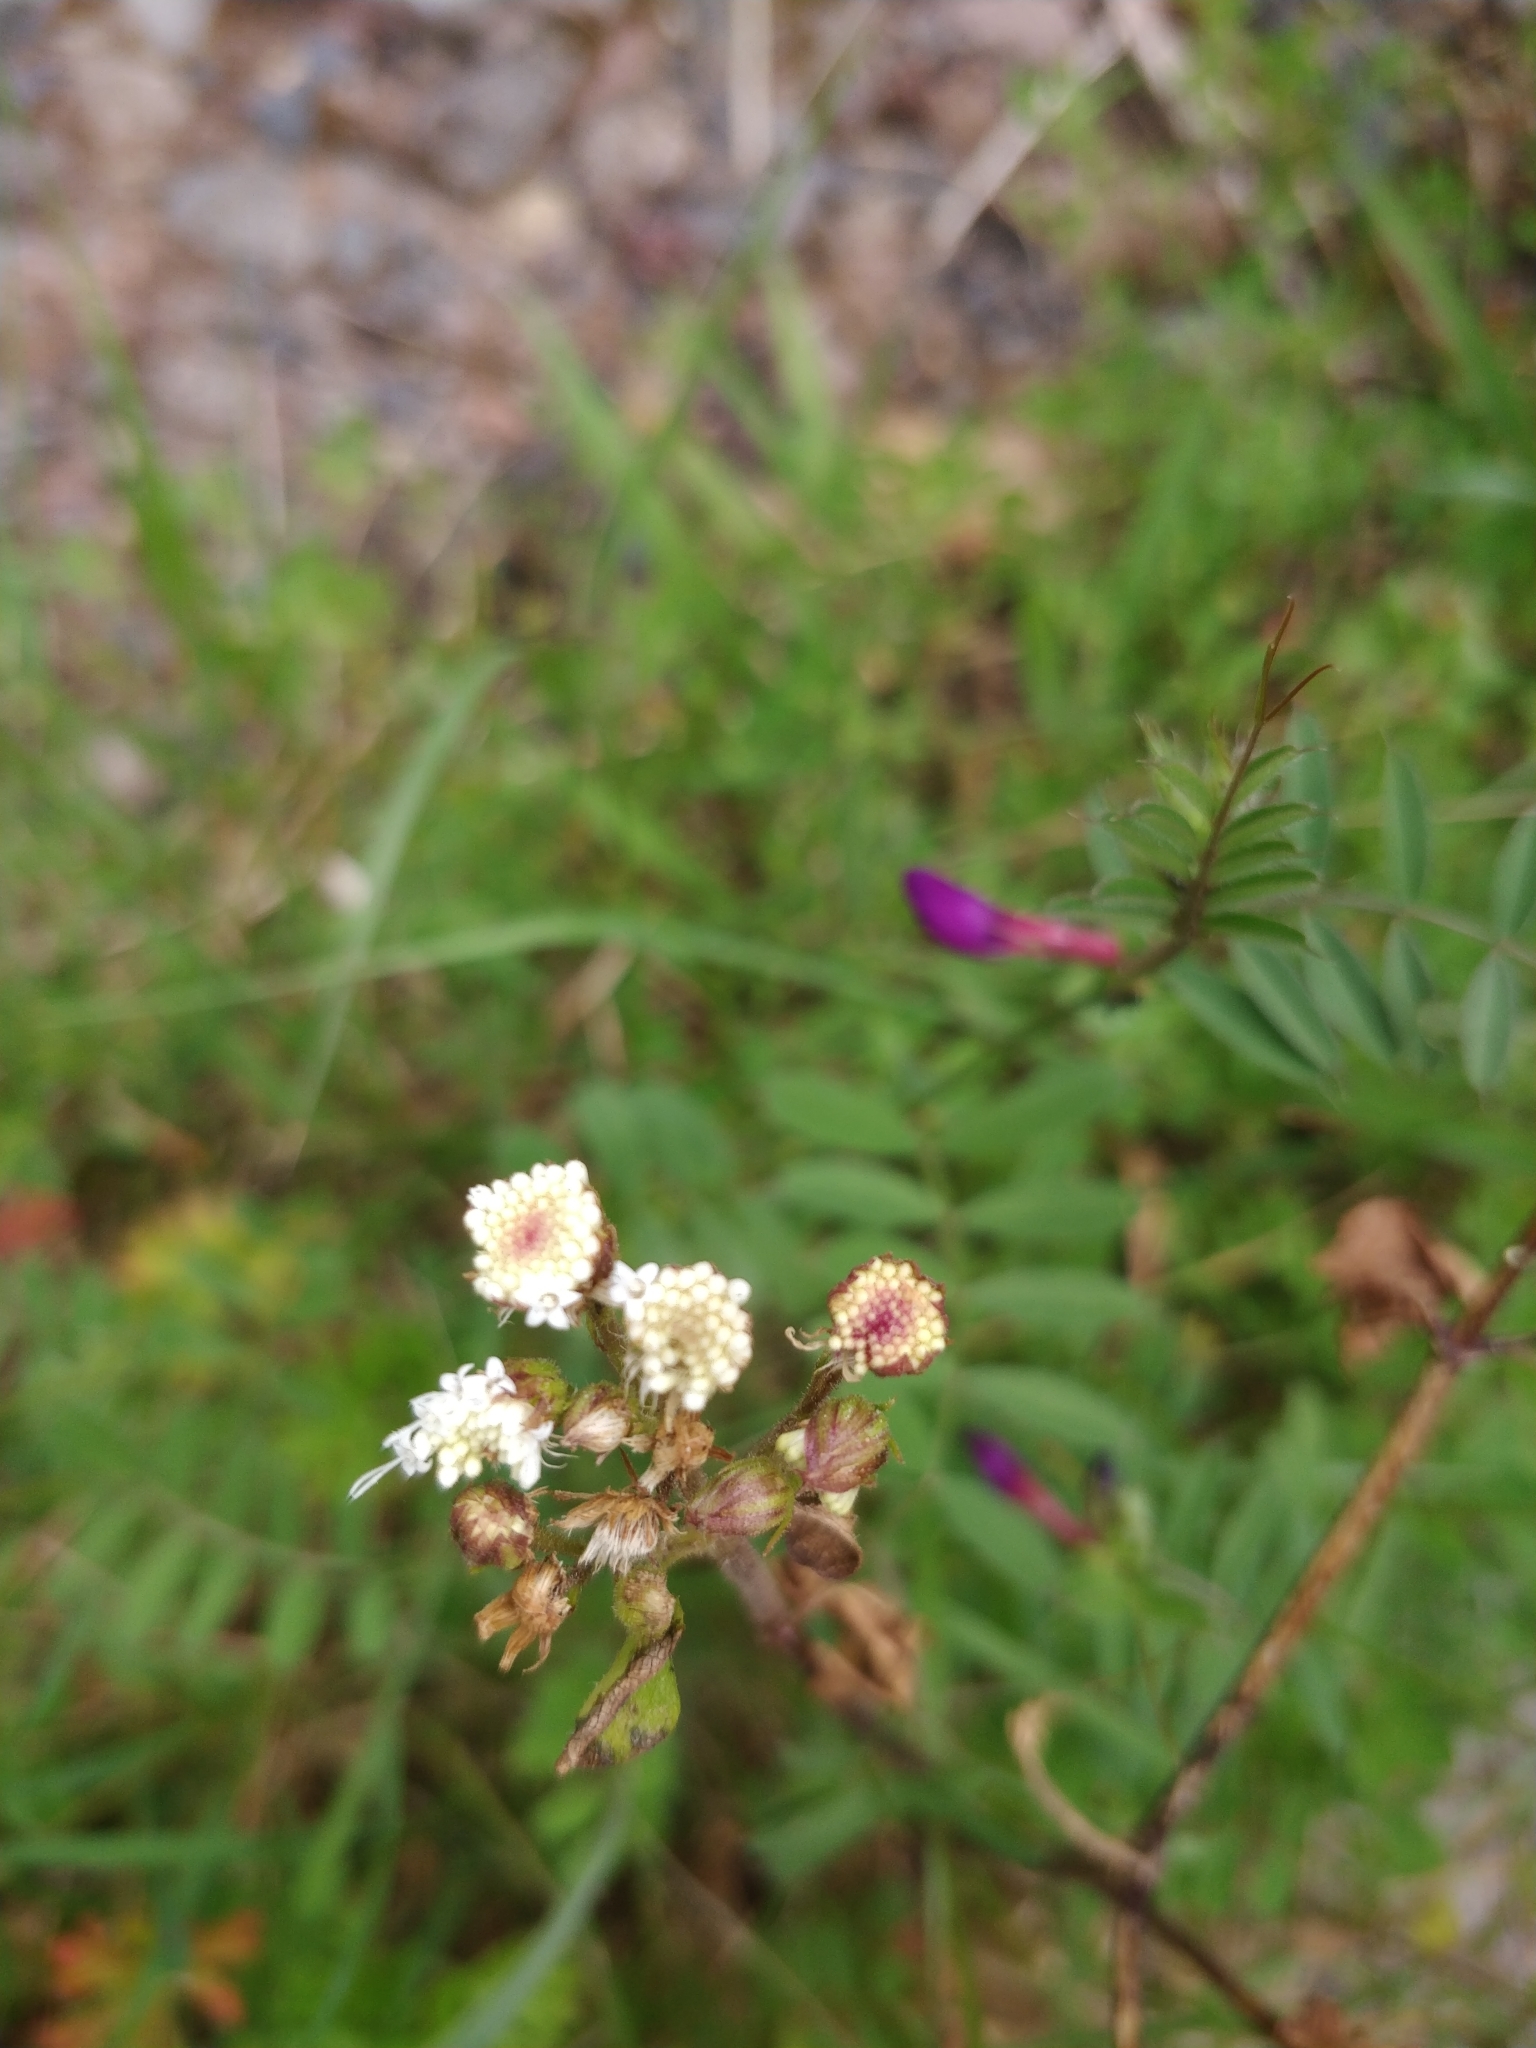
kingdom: Plantae
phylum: Tracheophyta
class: Magnoliopsida
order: Asterales
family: Asteraceae
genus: Ageratina
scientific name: Ageratina adenophora
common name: Sticky snakeroot
